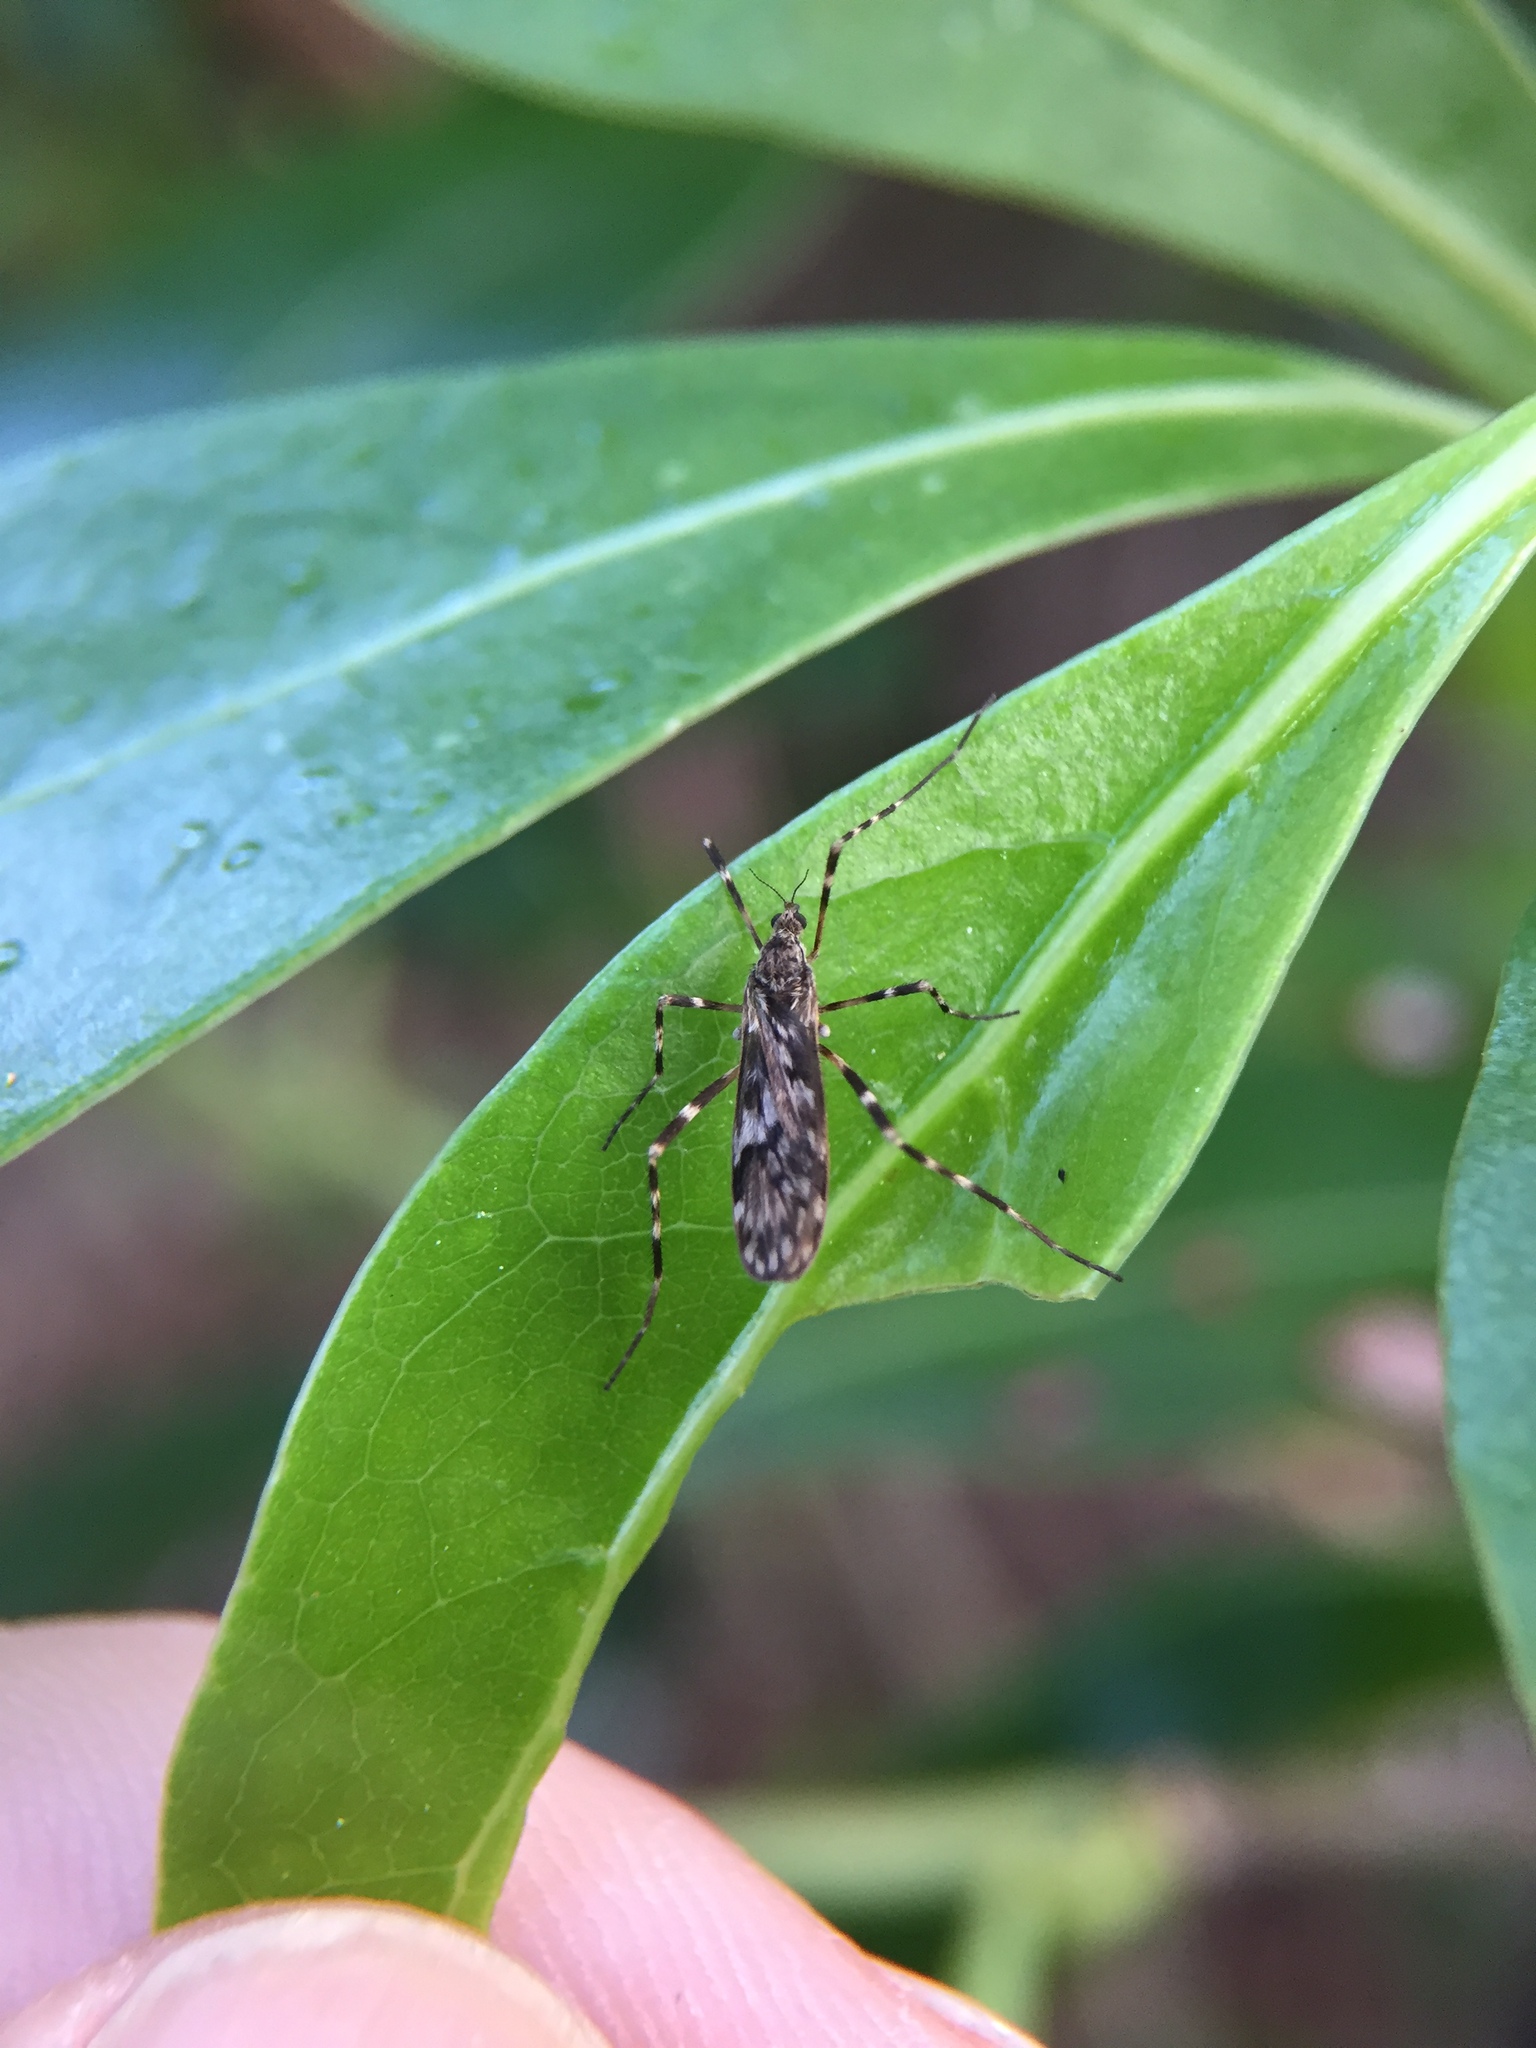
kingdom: Animalia
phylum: Arthropoda
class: Insecta
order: Diptera
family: Limoniidae
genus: Amphineurus
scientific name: Amphineurus perdecorus
